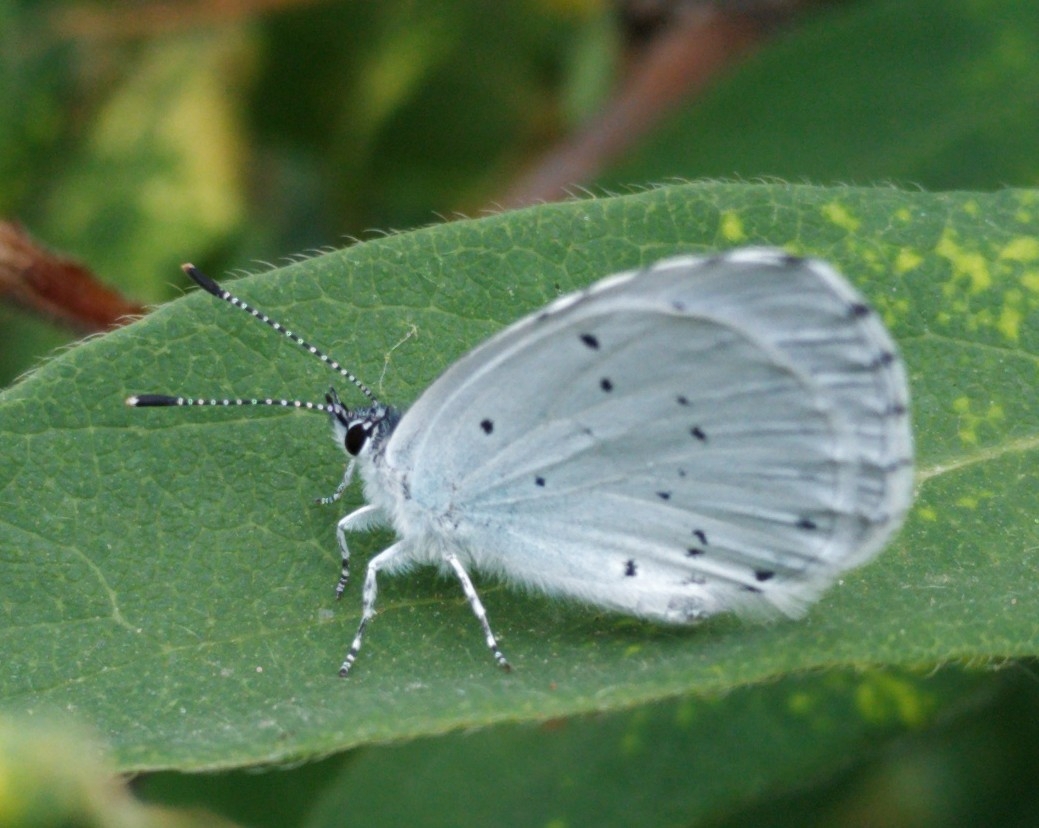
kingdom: Animalia
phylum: Arthropoda
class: Insecta
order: Lepidoptera
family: Lycaenidae
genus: Celastrina
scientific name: Celastrina argiolus
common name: Holly blue
